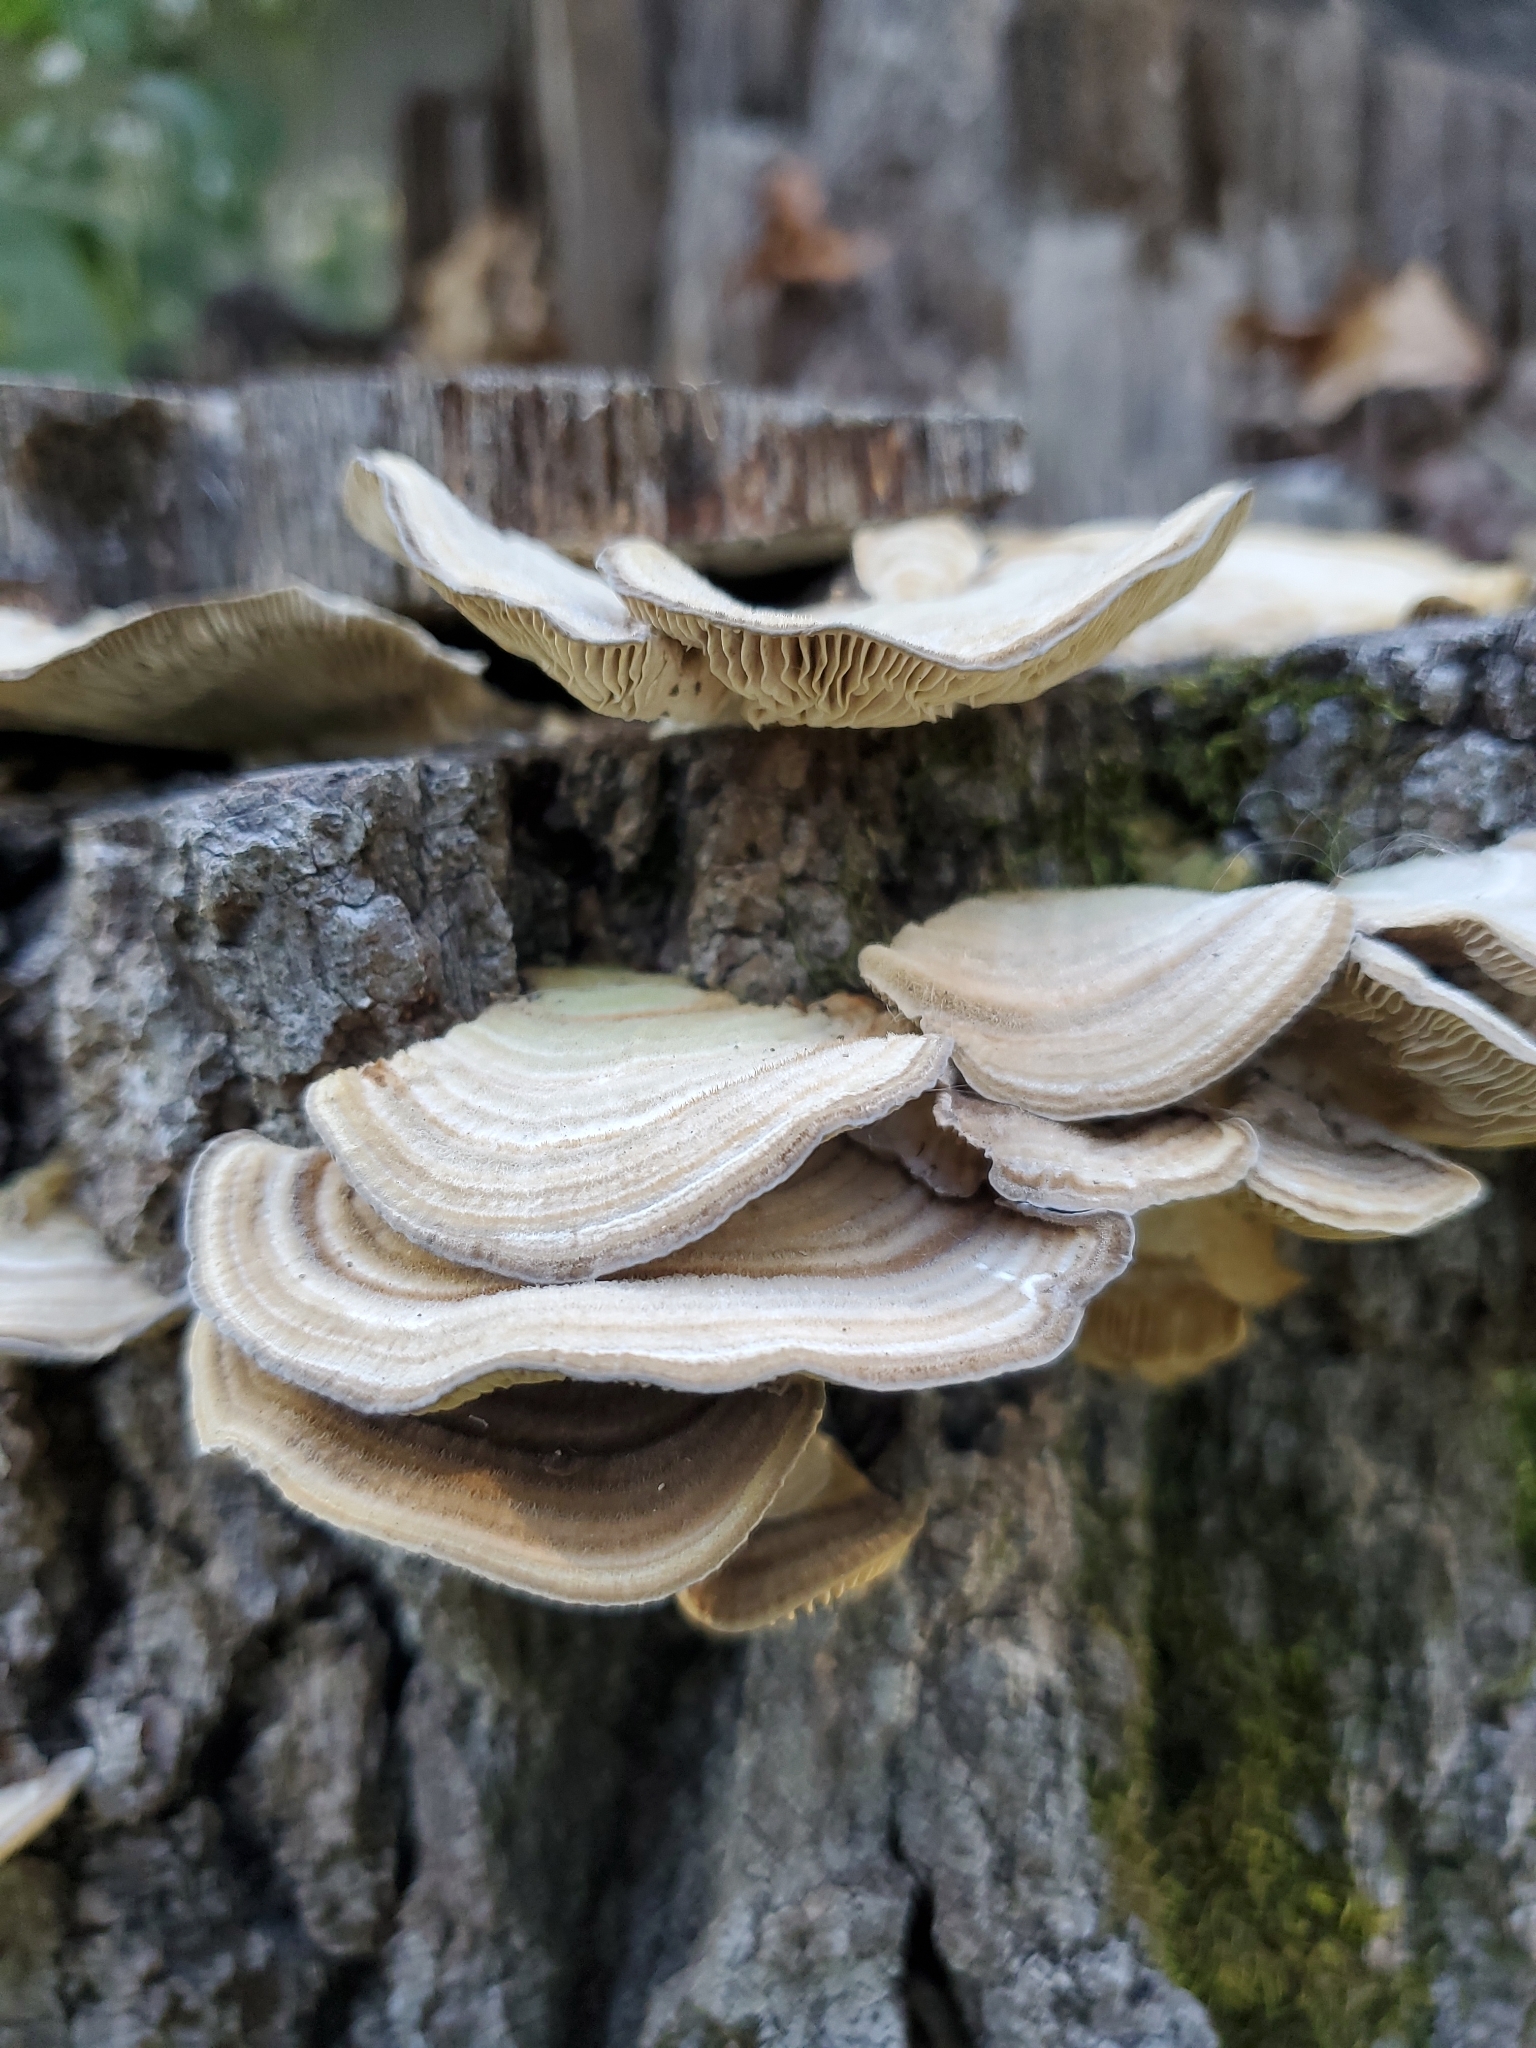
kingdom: Fungi
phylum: Basidiomycota
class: Agaricomycetes
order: Polyporales
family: Polyporaceae
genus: Lenzites
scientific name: Lenzites betulinus
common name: Birch mazegill
